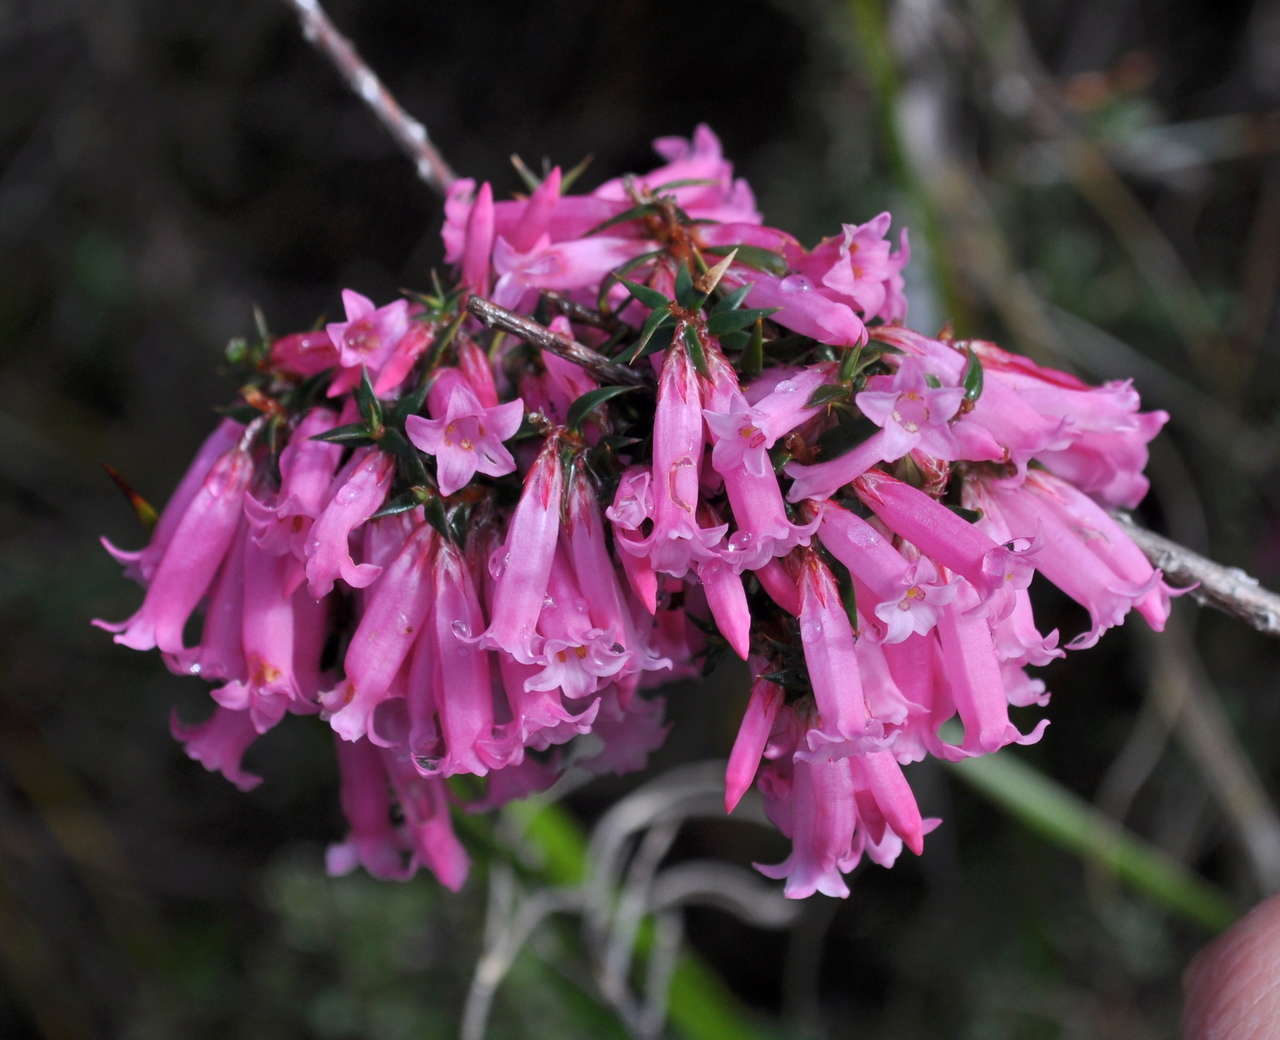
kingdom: Plantae
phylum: Tracheophyta
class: Magnoliopsida
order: Ericales
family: Ericaceae
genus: Epacris
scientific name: Epacris impressa
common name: Common-heath
